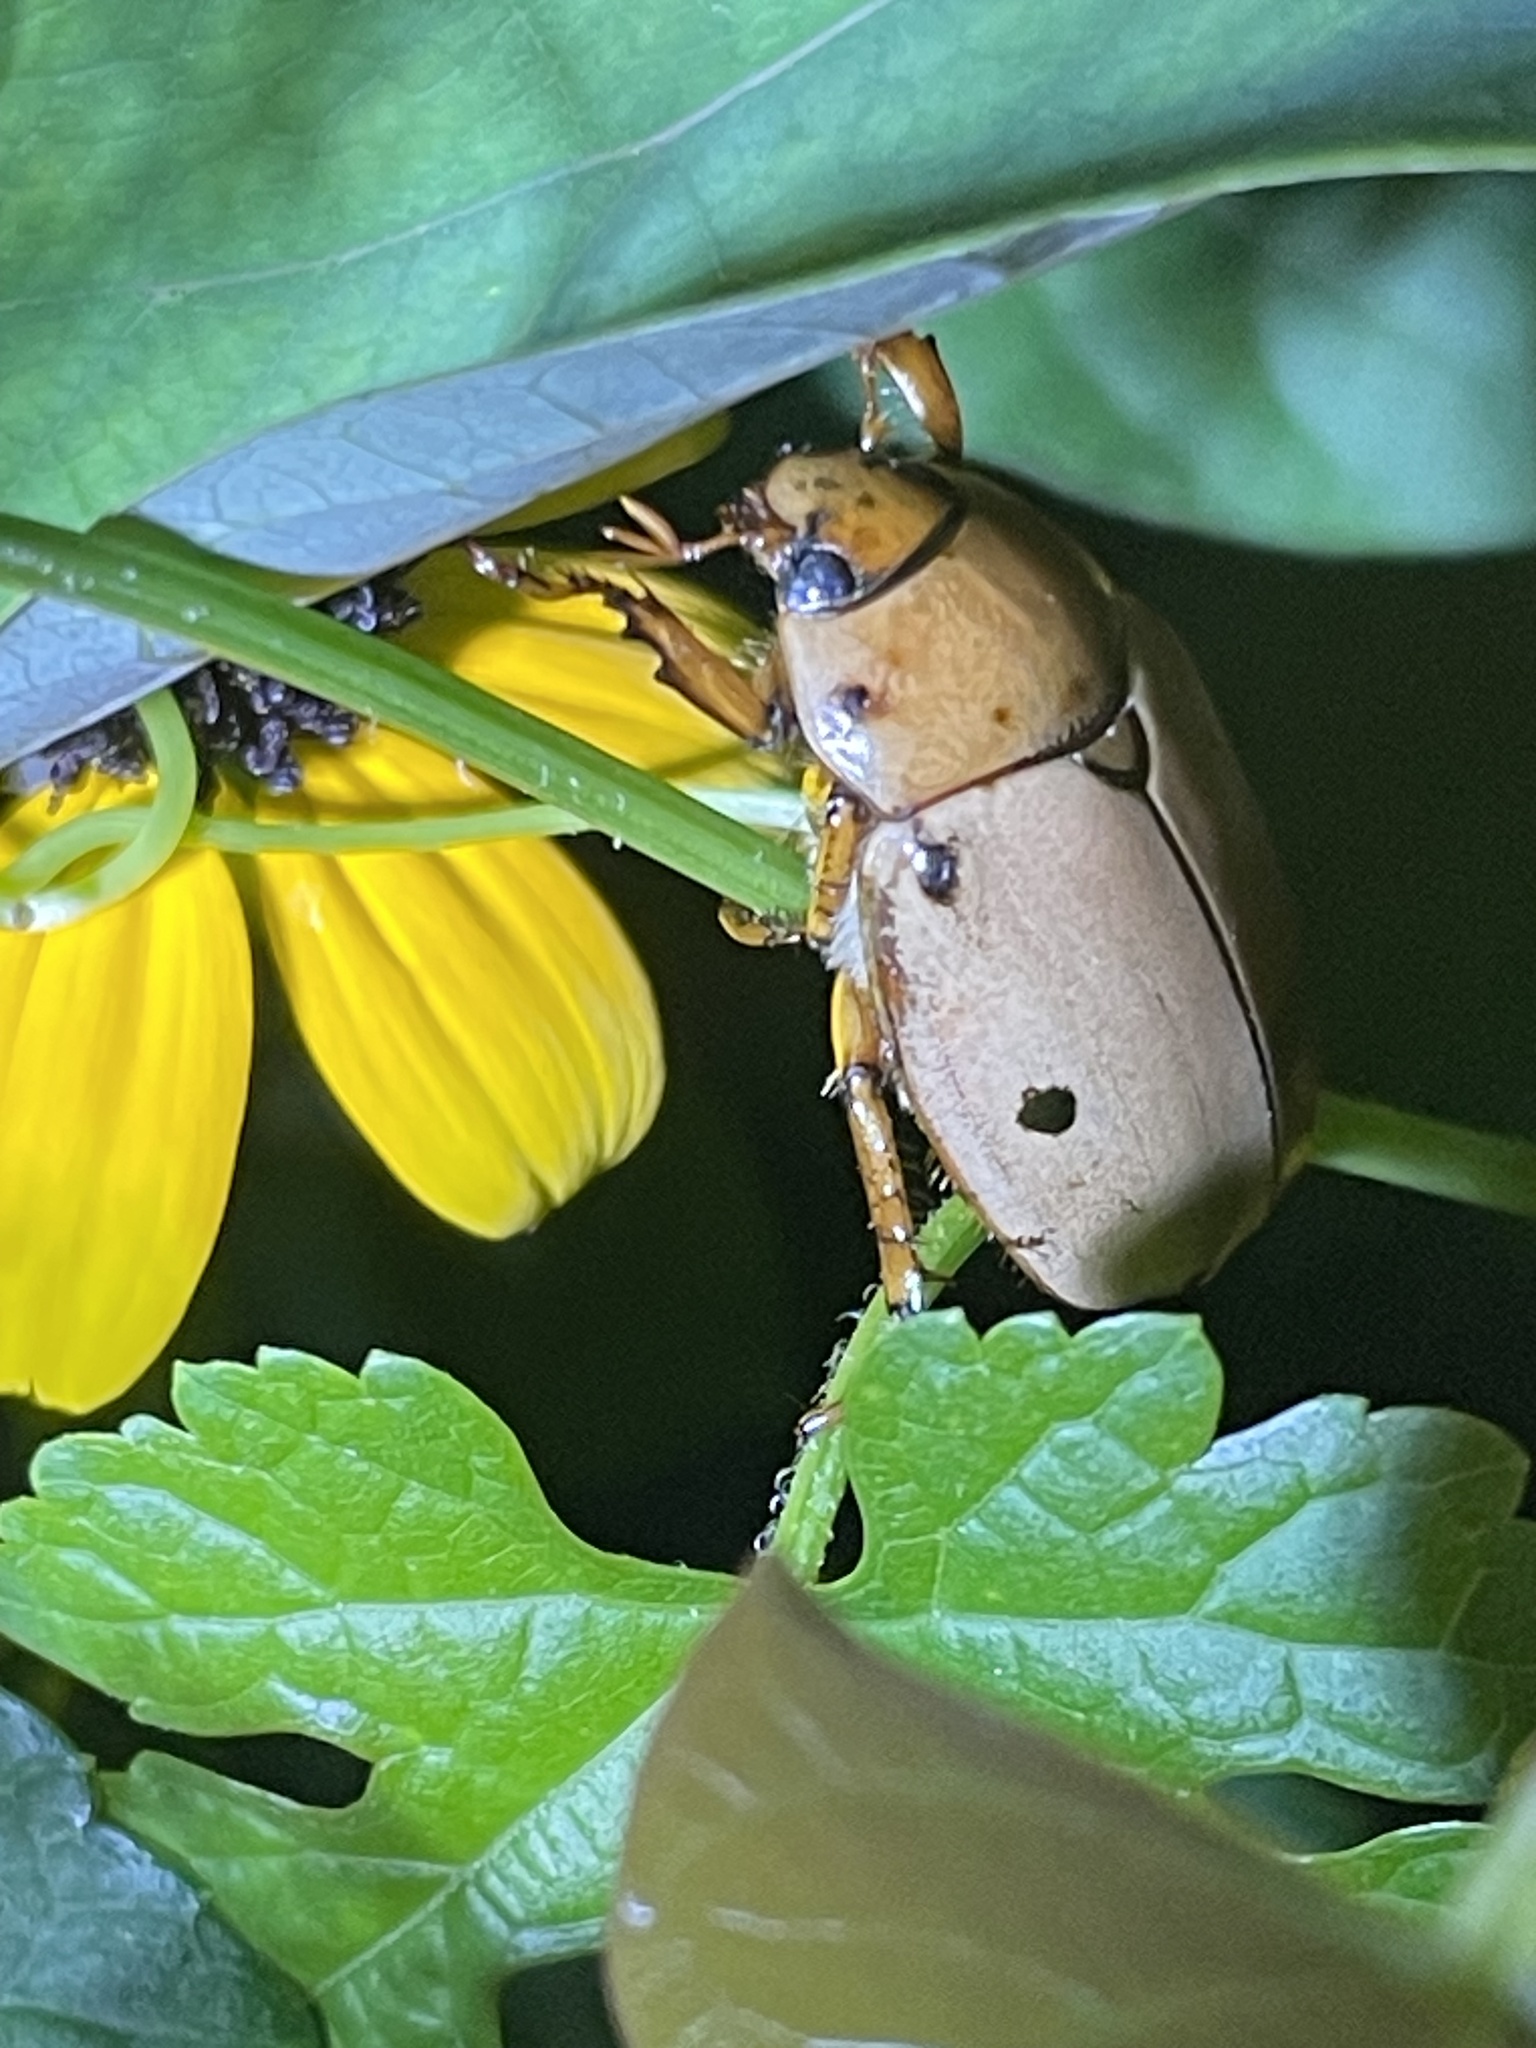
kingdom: Animalia
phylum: Arthropoda
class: Insecta
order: Coleoptera
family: Scarabaeidae
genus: Pelidnota
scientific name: Pelidnota punctata
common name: Grapevine beetle
